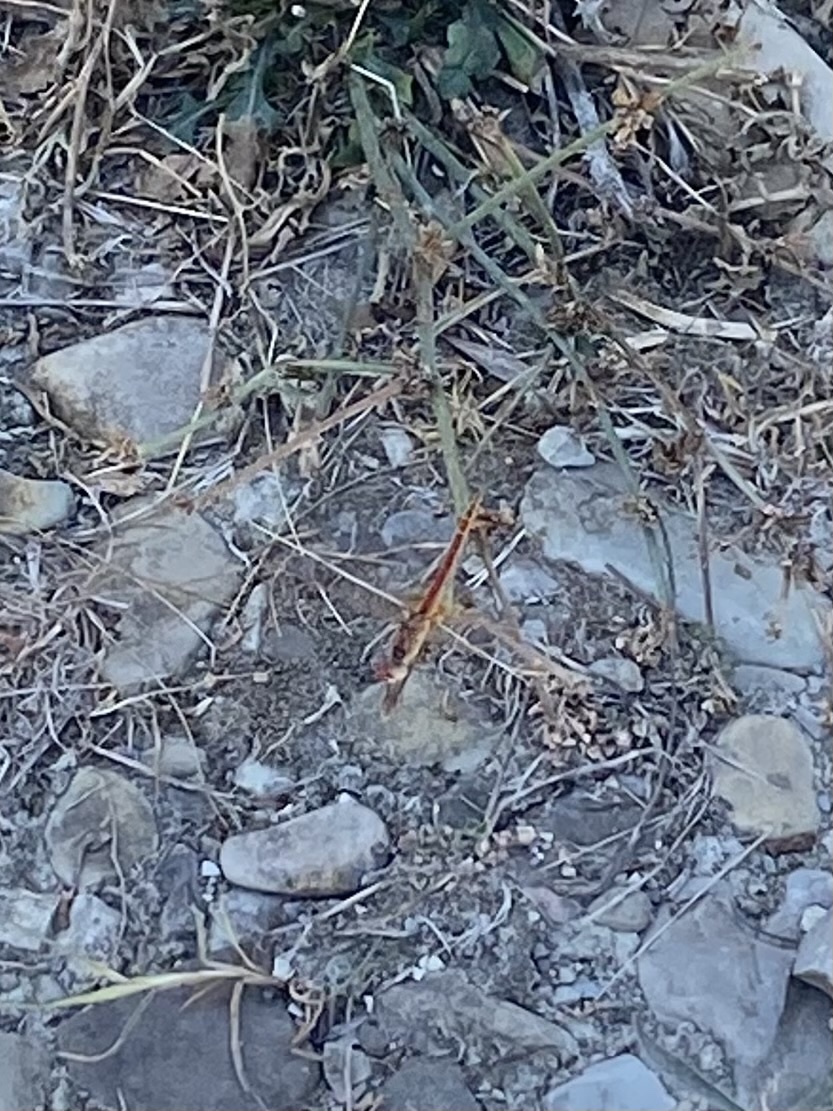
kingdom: Animalia
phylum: Arthropoda
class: Insecta
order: Odonata
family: Libellulidae
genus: Sympetrum
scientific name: Sympetrum fonscolombii
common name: Red-veined darter
